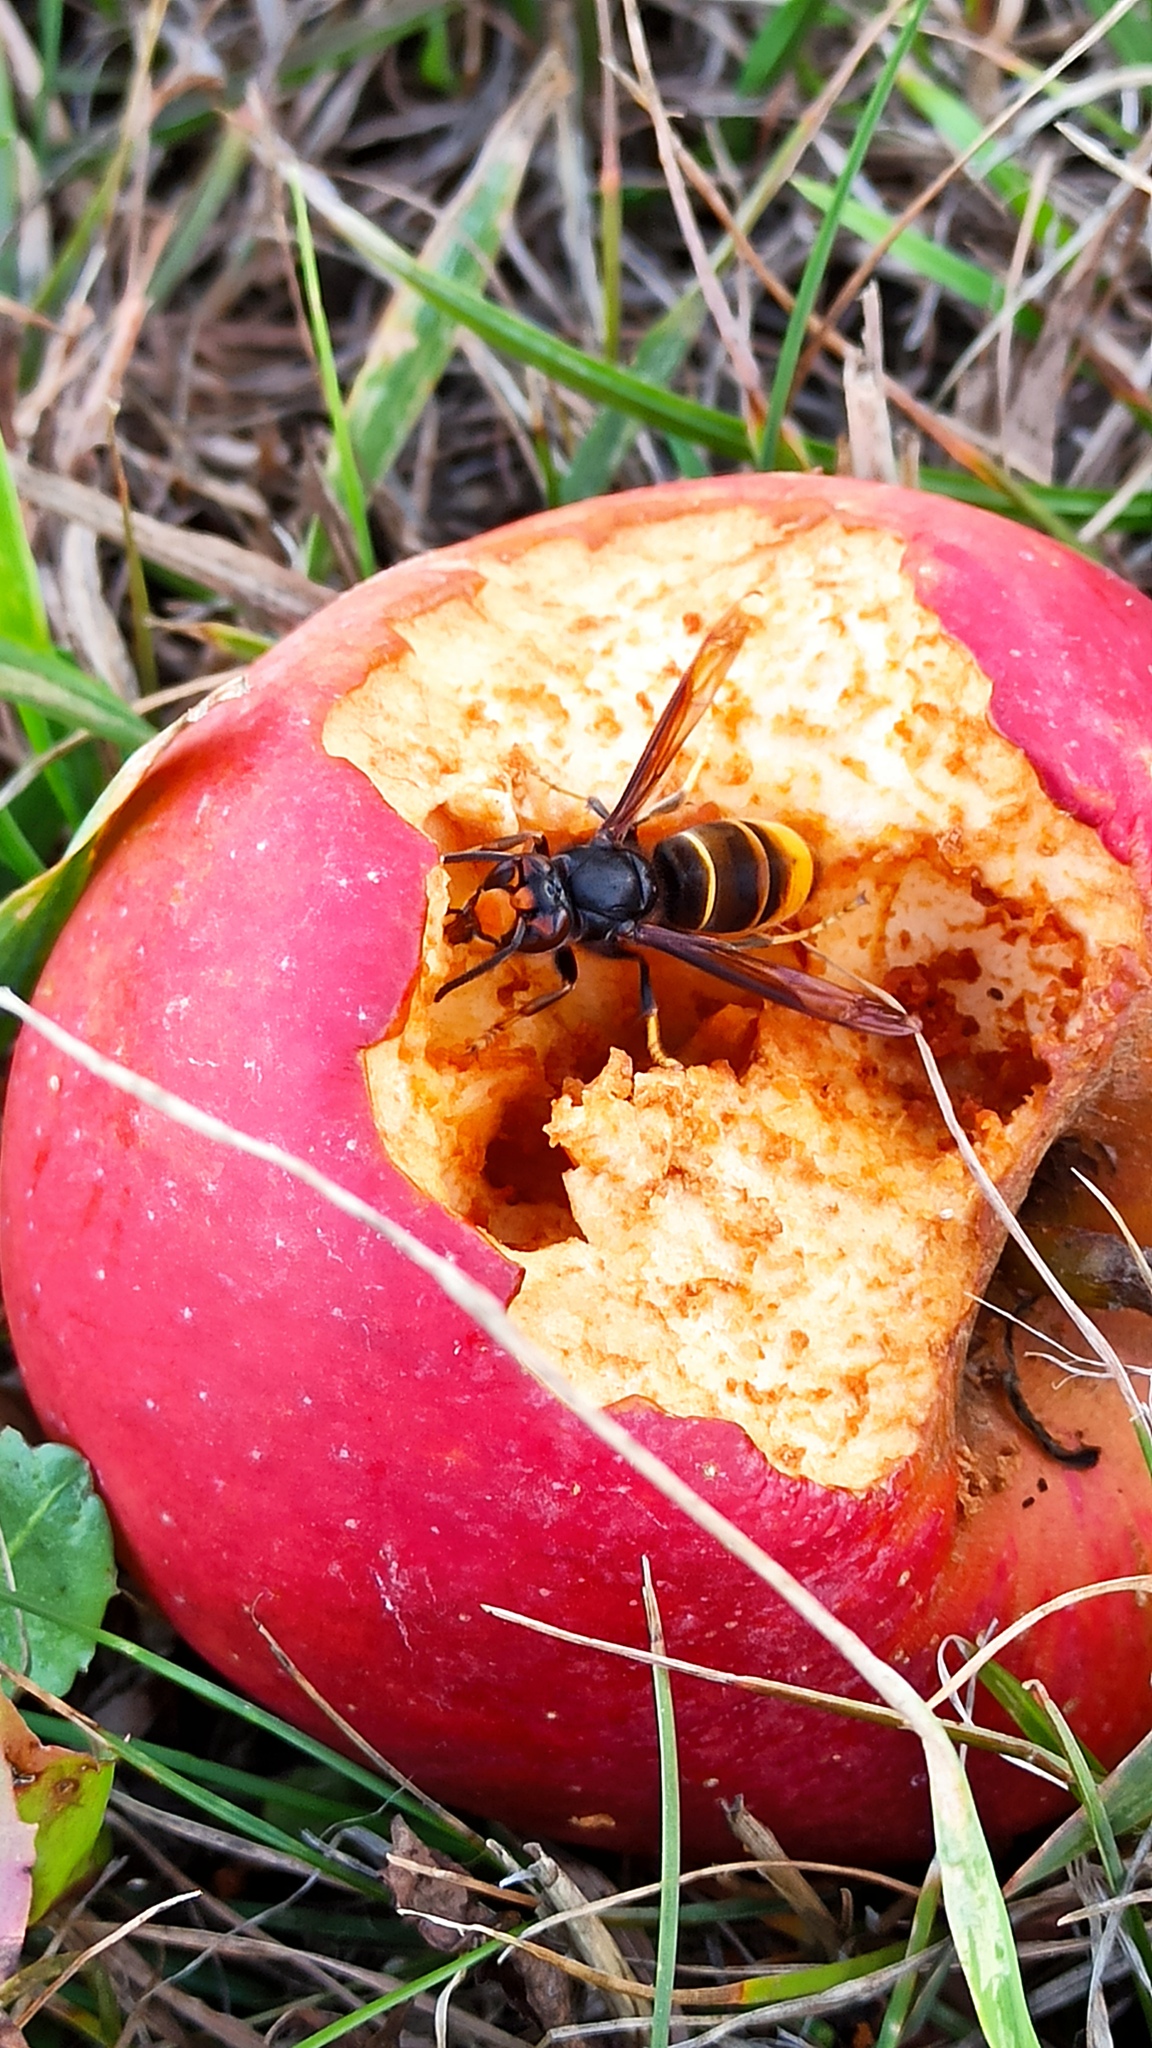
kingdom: Animalia
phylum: Arthropoda
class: Insecta
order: Hymenoptera
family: Vespidae
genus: Vespa
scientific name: Vespa velutina
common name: Asian hornet
